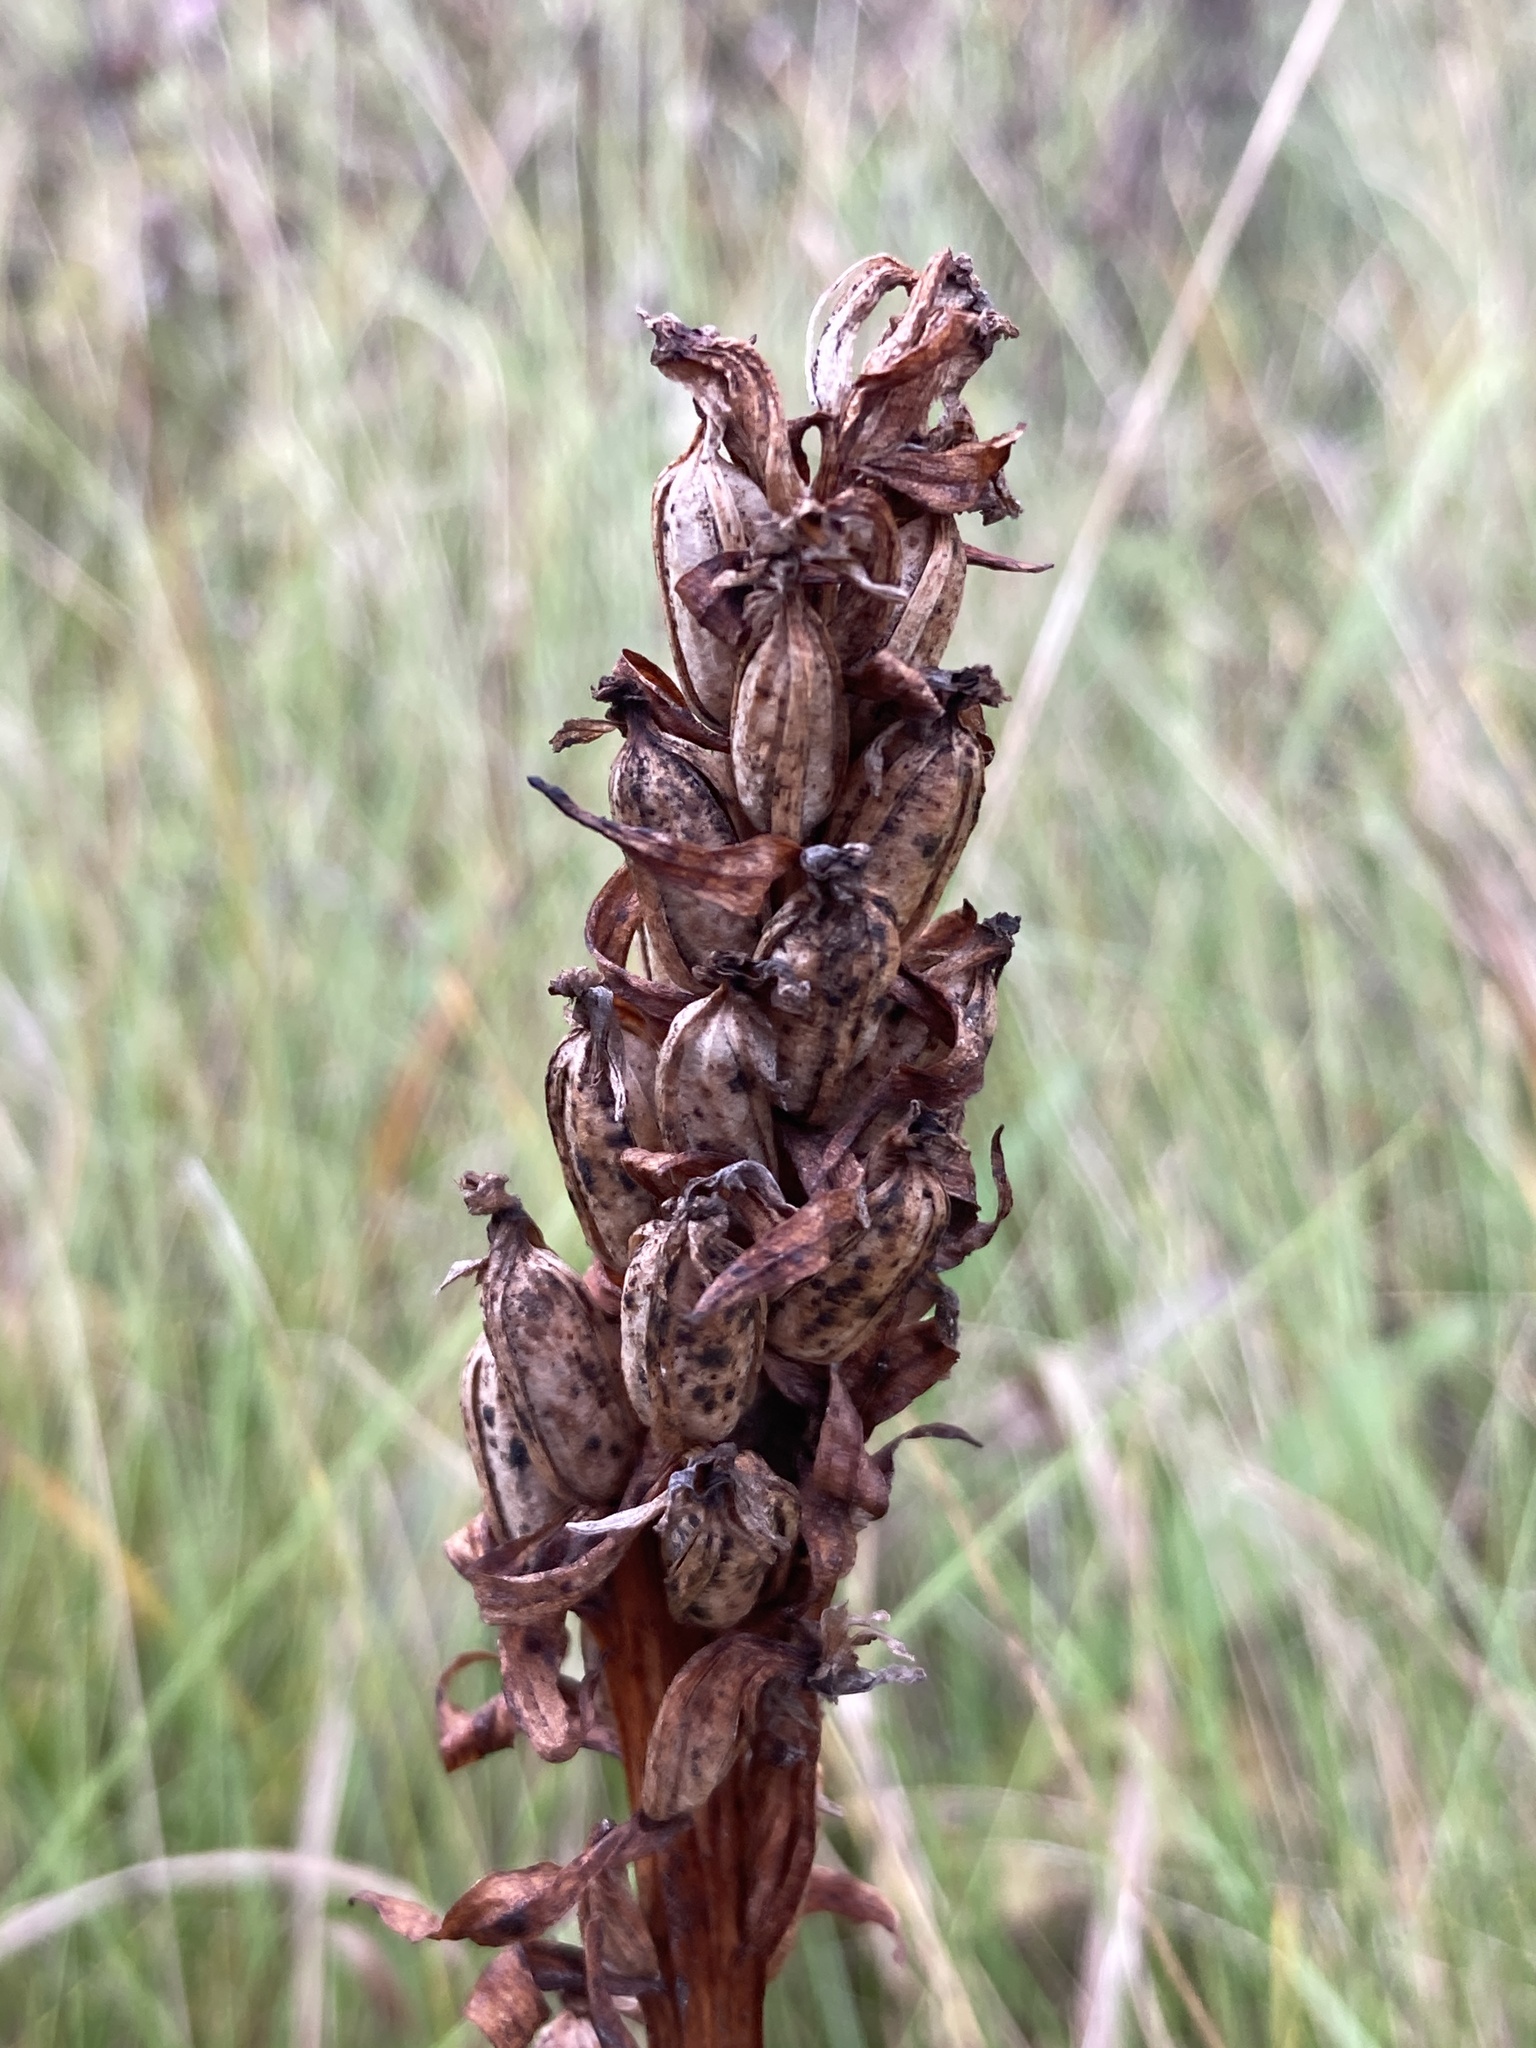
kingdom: Plantae
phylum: Tracheophyta
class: Liliopsida
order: Asparagales
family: Orchidaceae
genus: Dactylorhiza
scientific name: Dactylorhiza incarnata
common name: Early marsh-orchid
